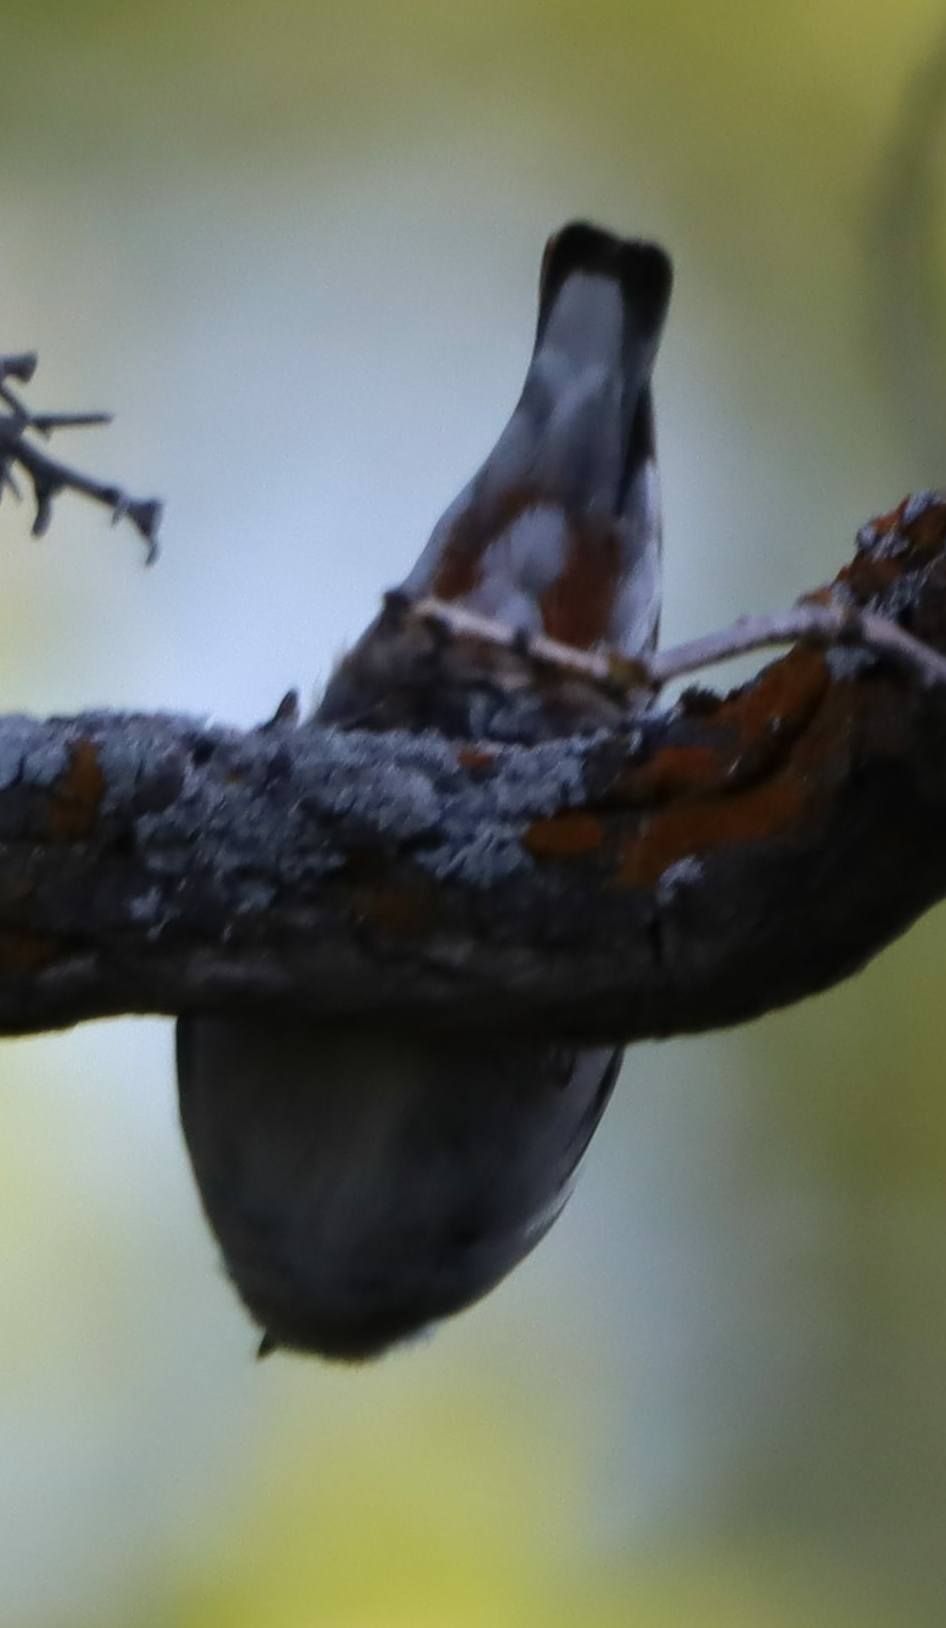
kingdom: Animalia
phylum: Chordata
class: Aves
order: Passeriformes
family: Sittidae
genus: Sitta
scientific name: Sitta carolinensis
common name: White-breasted nuthatch
